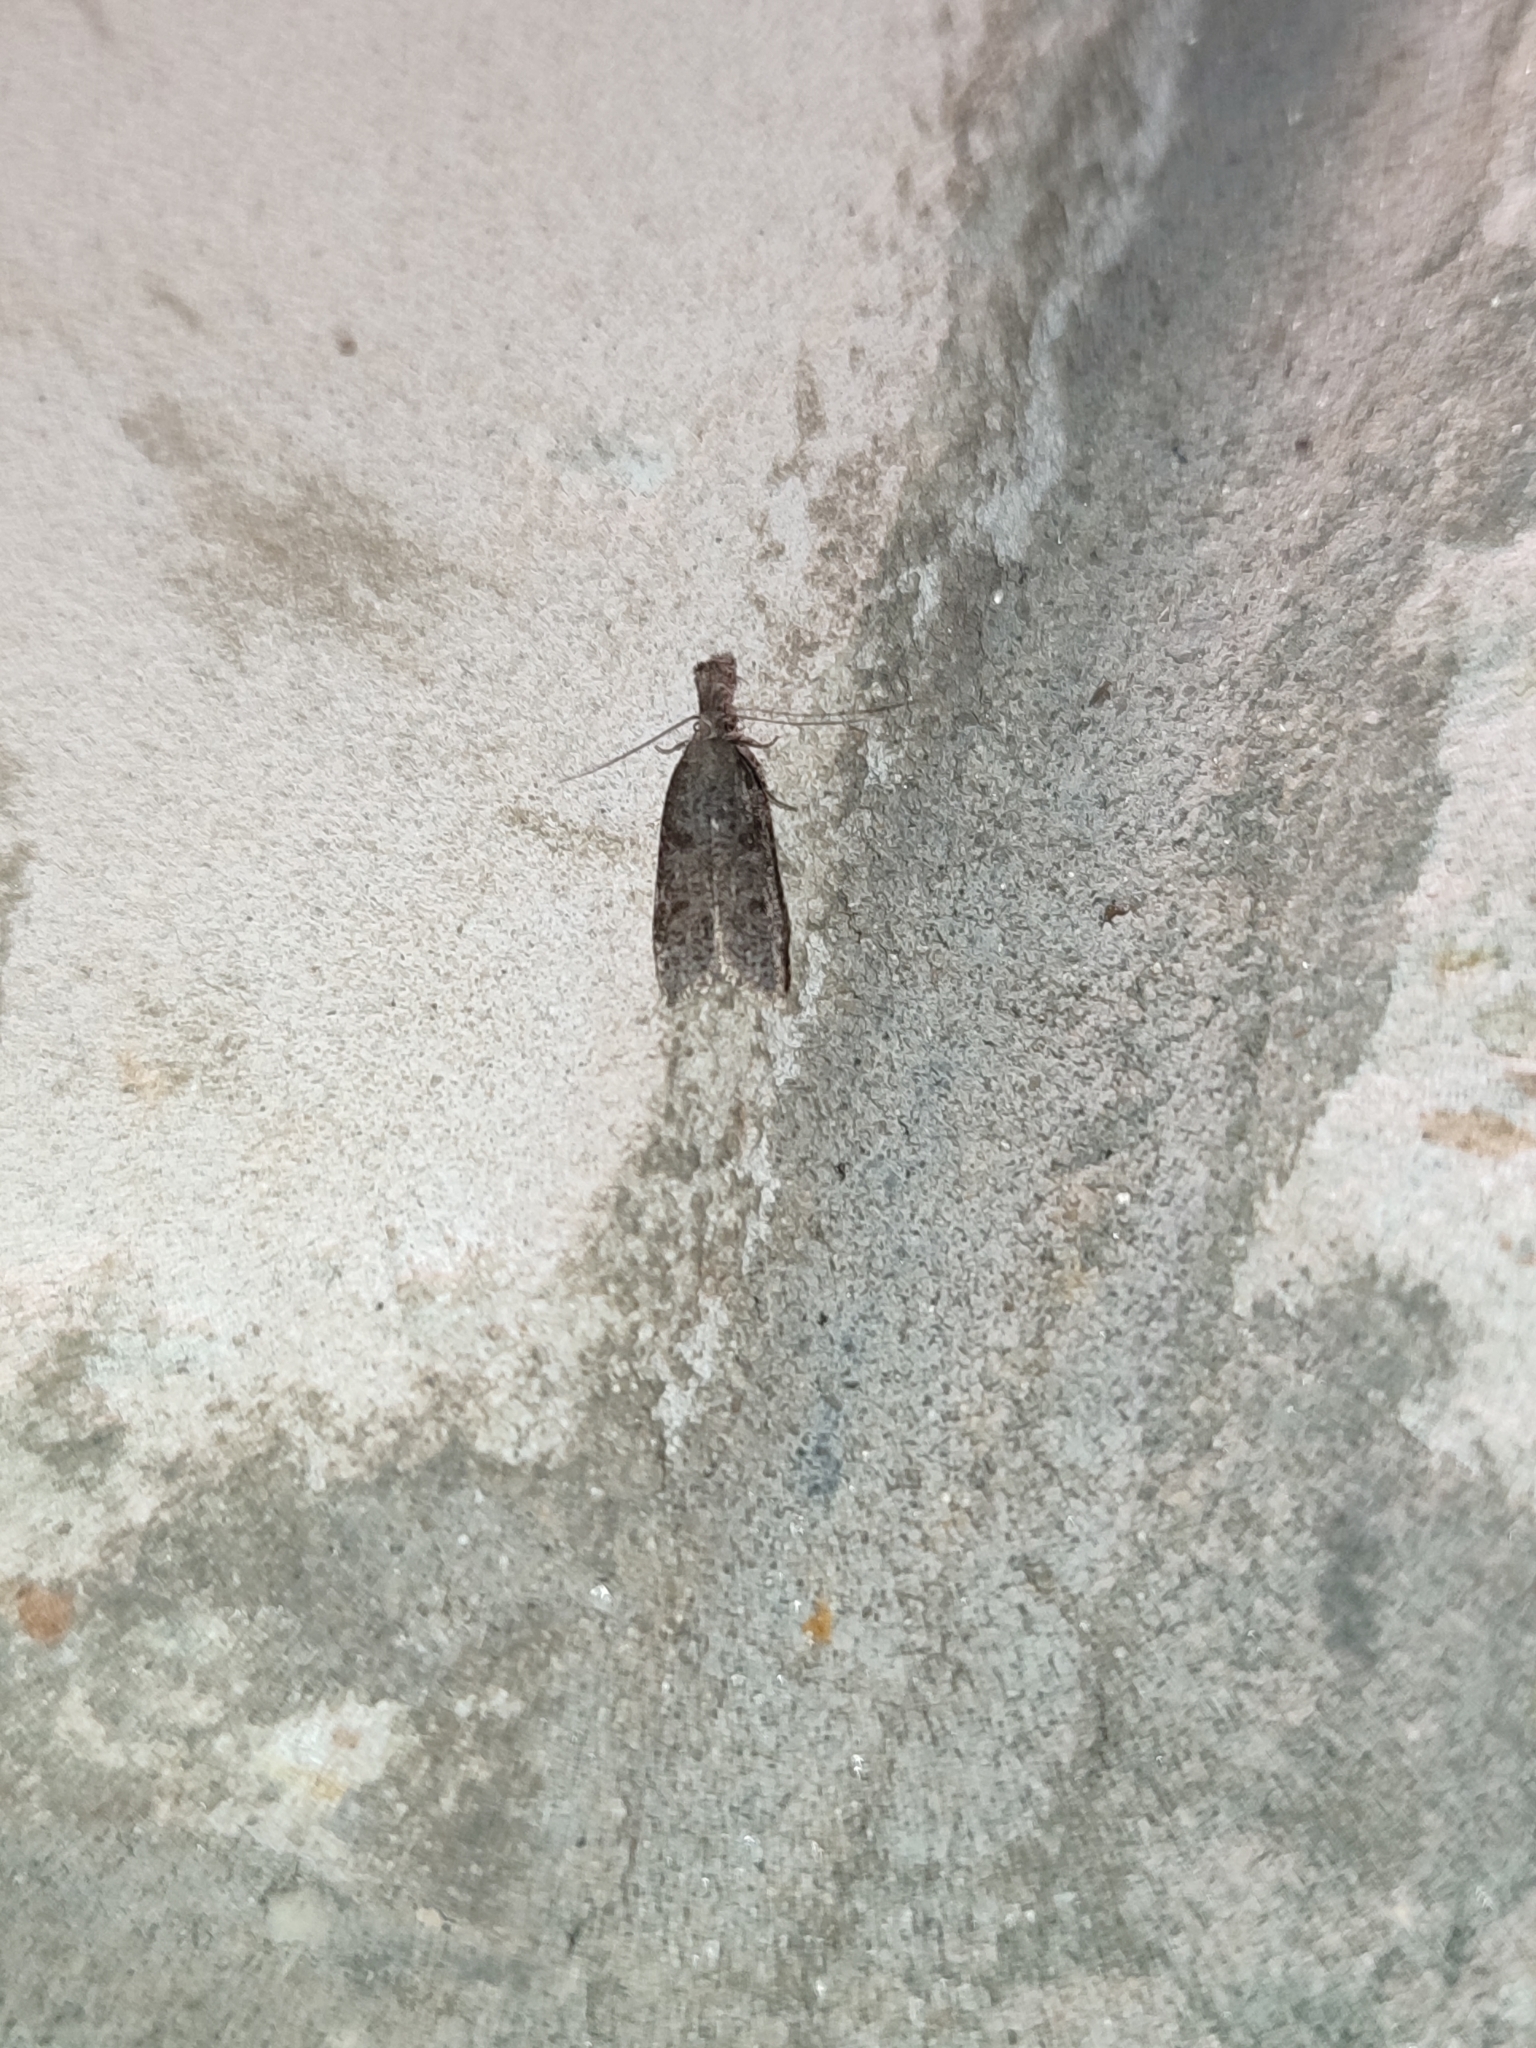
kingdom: Animalia
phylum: Arthropoda
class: Insecta
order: Lepidoptera
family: Gelechiidae
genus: Dichomeris
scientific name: Dichomeris barbella
